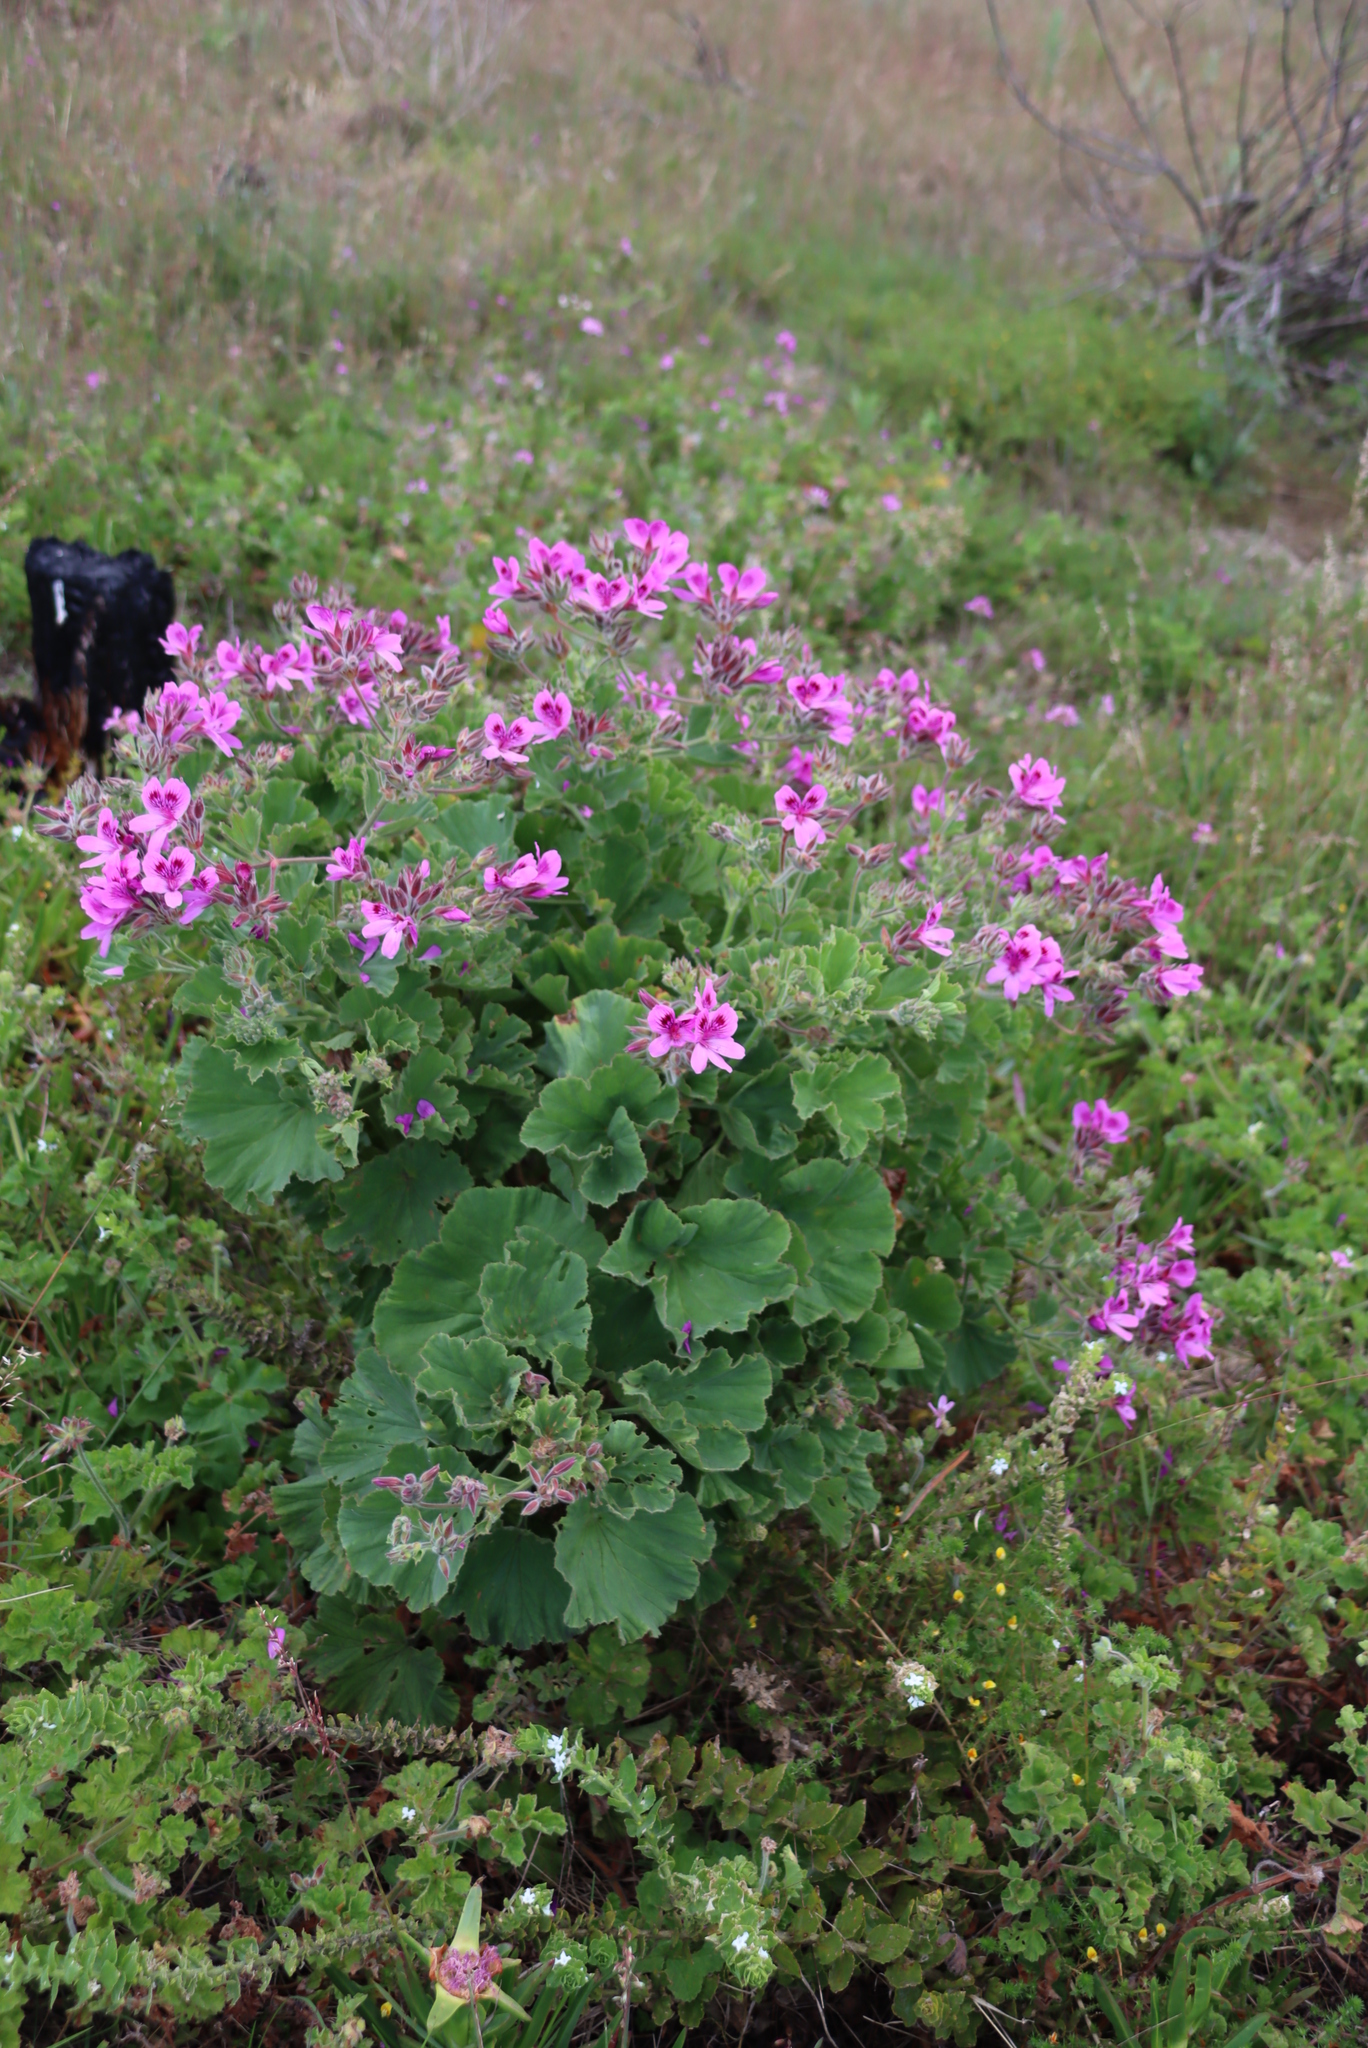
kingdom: Plantae
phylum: Tracheophyta
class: Magnoliopsida
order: Geraniales
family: Geraniaceae
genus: Pelargonium
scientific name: Pelargonium cucullatum
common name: Tree pelargonium
